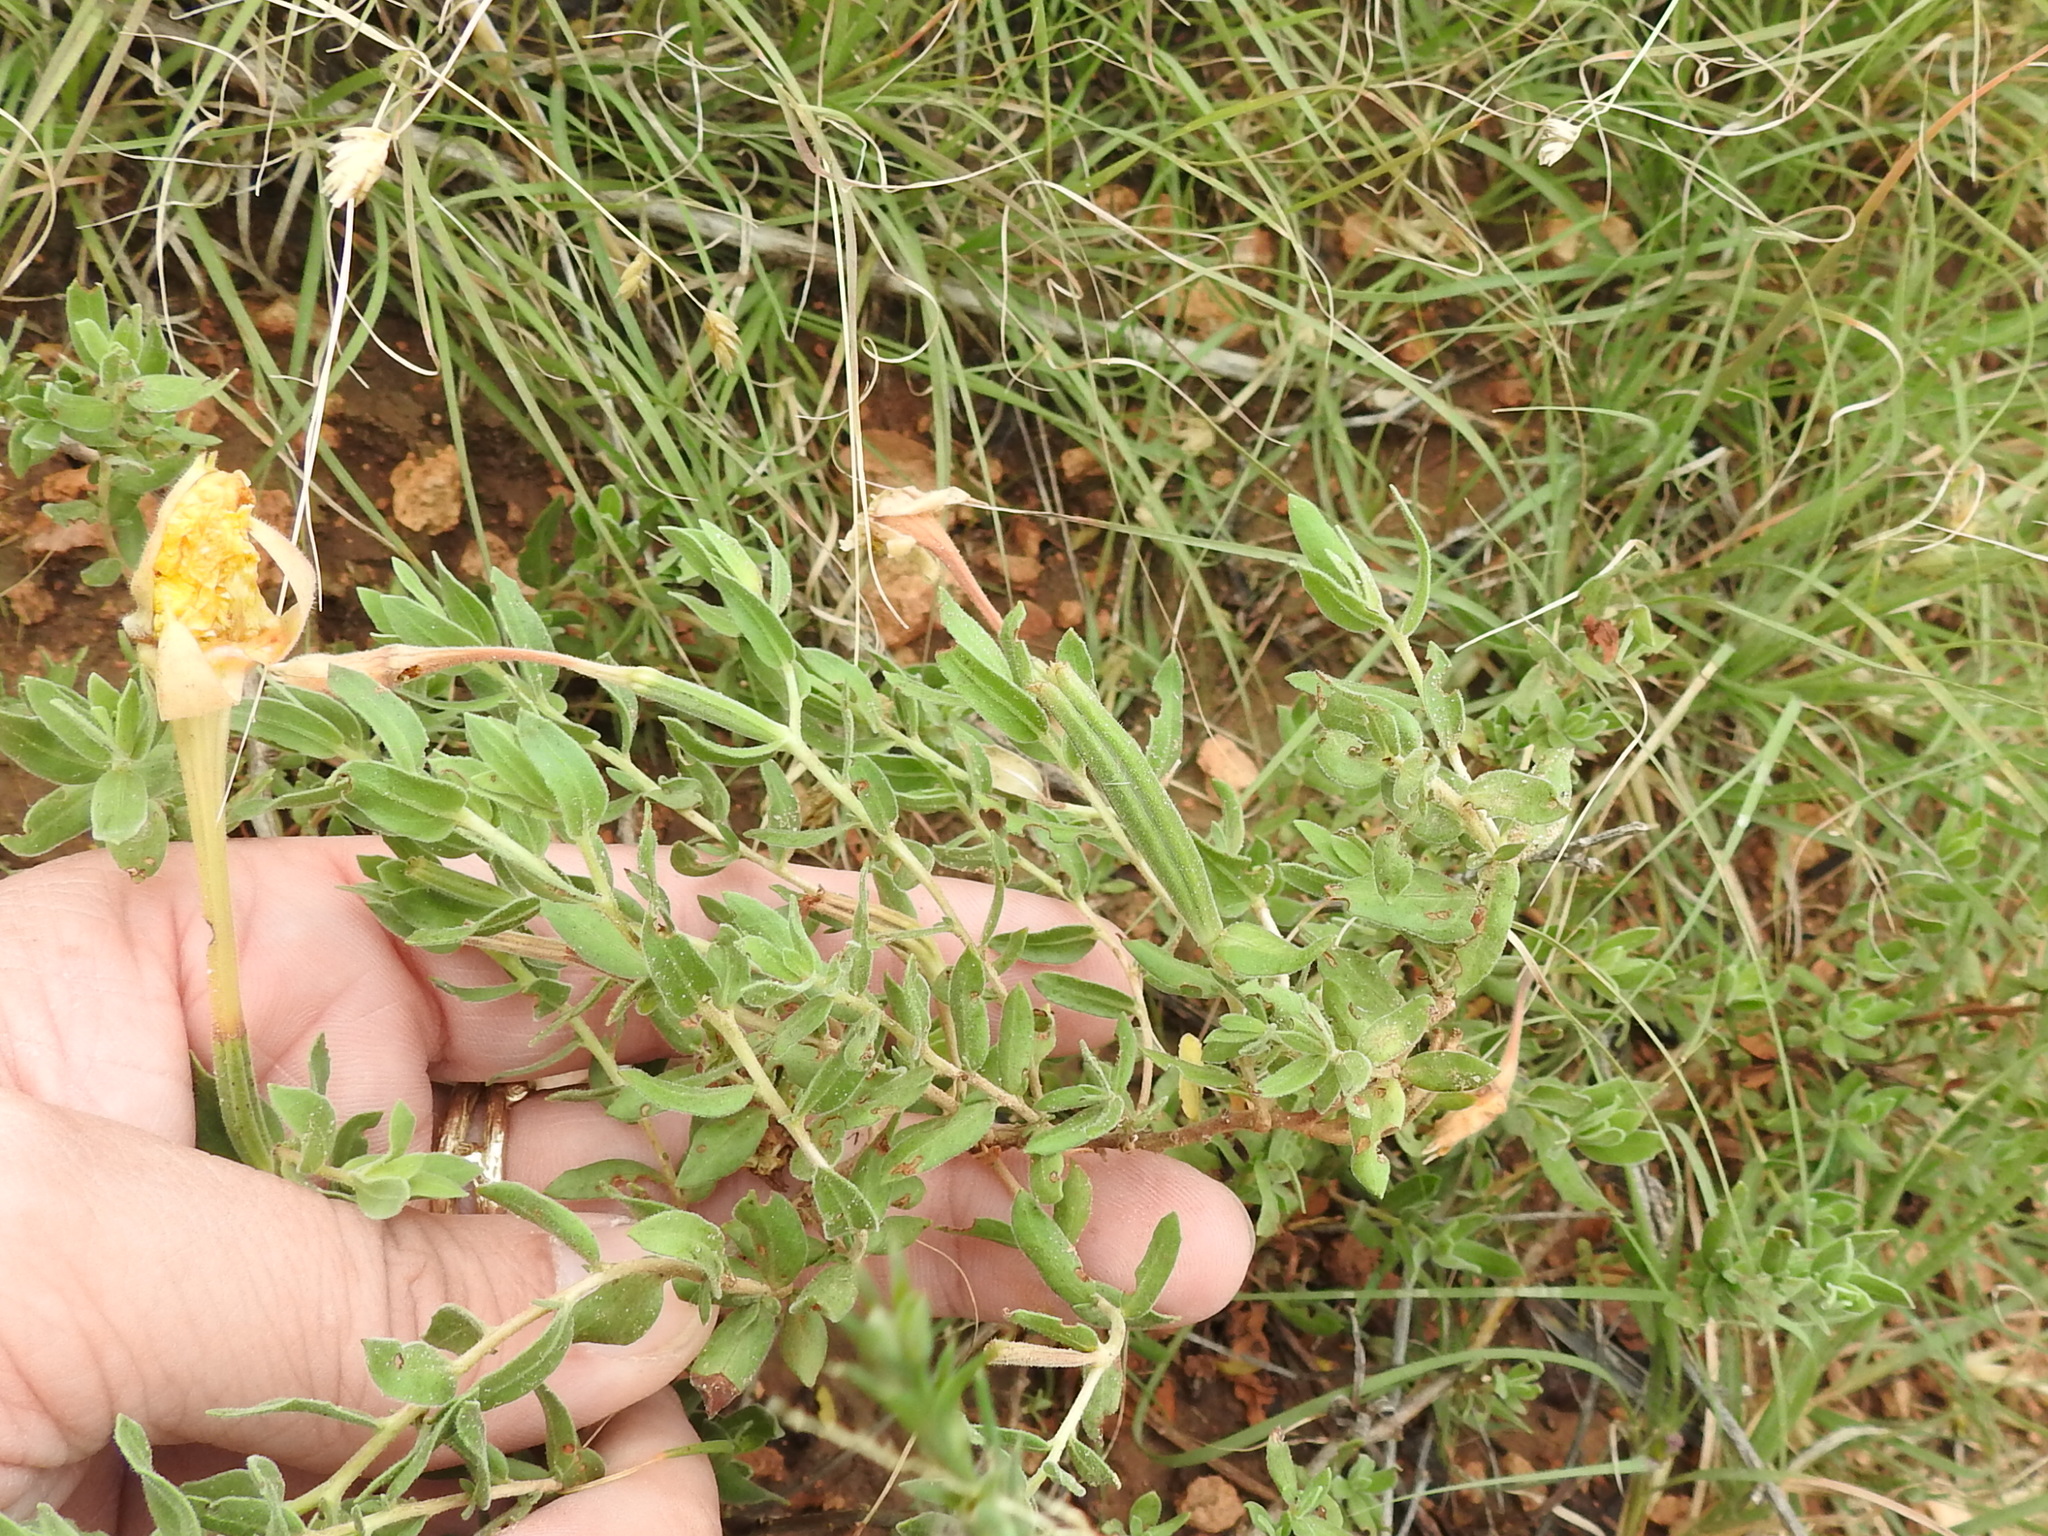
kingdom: Plantae
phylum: Tracheophyta
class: Magnoliopsida
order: Myrtales
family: Onagraceae
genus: Oenothera
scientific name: Oenothera hartwegii
